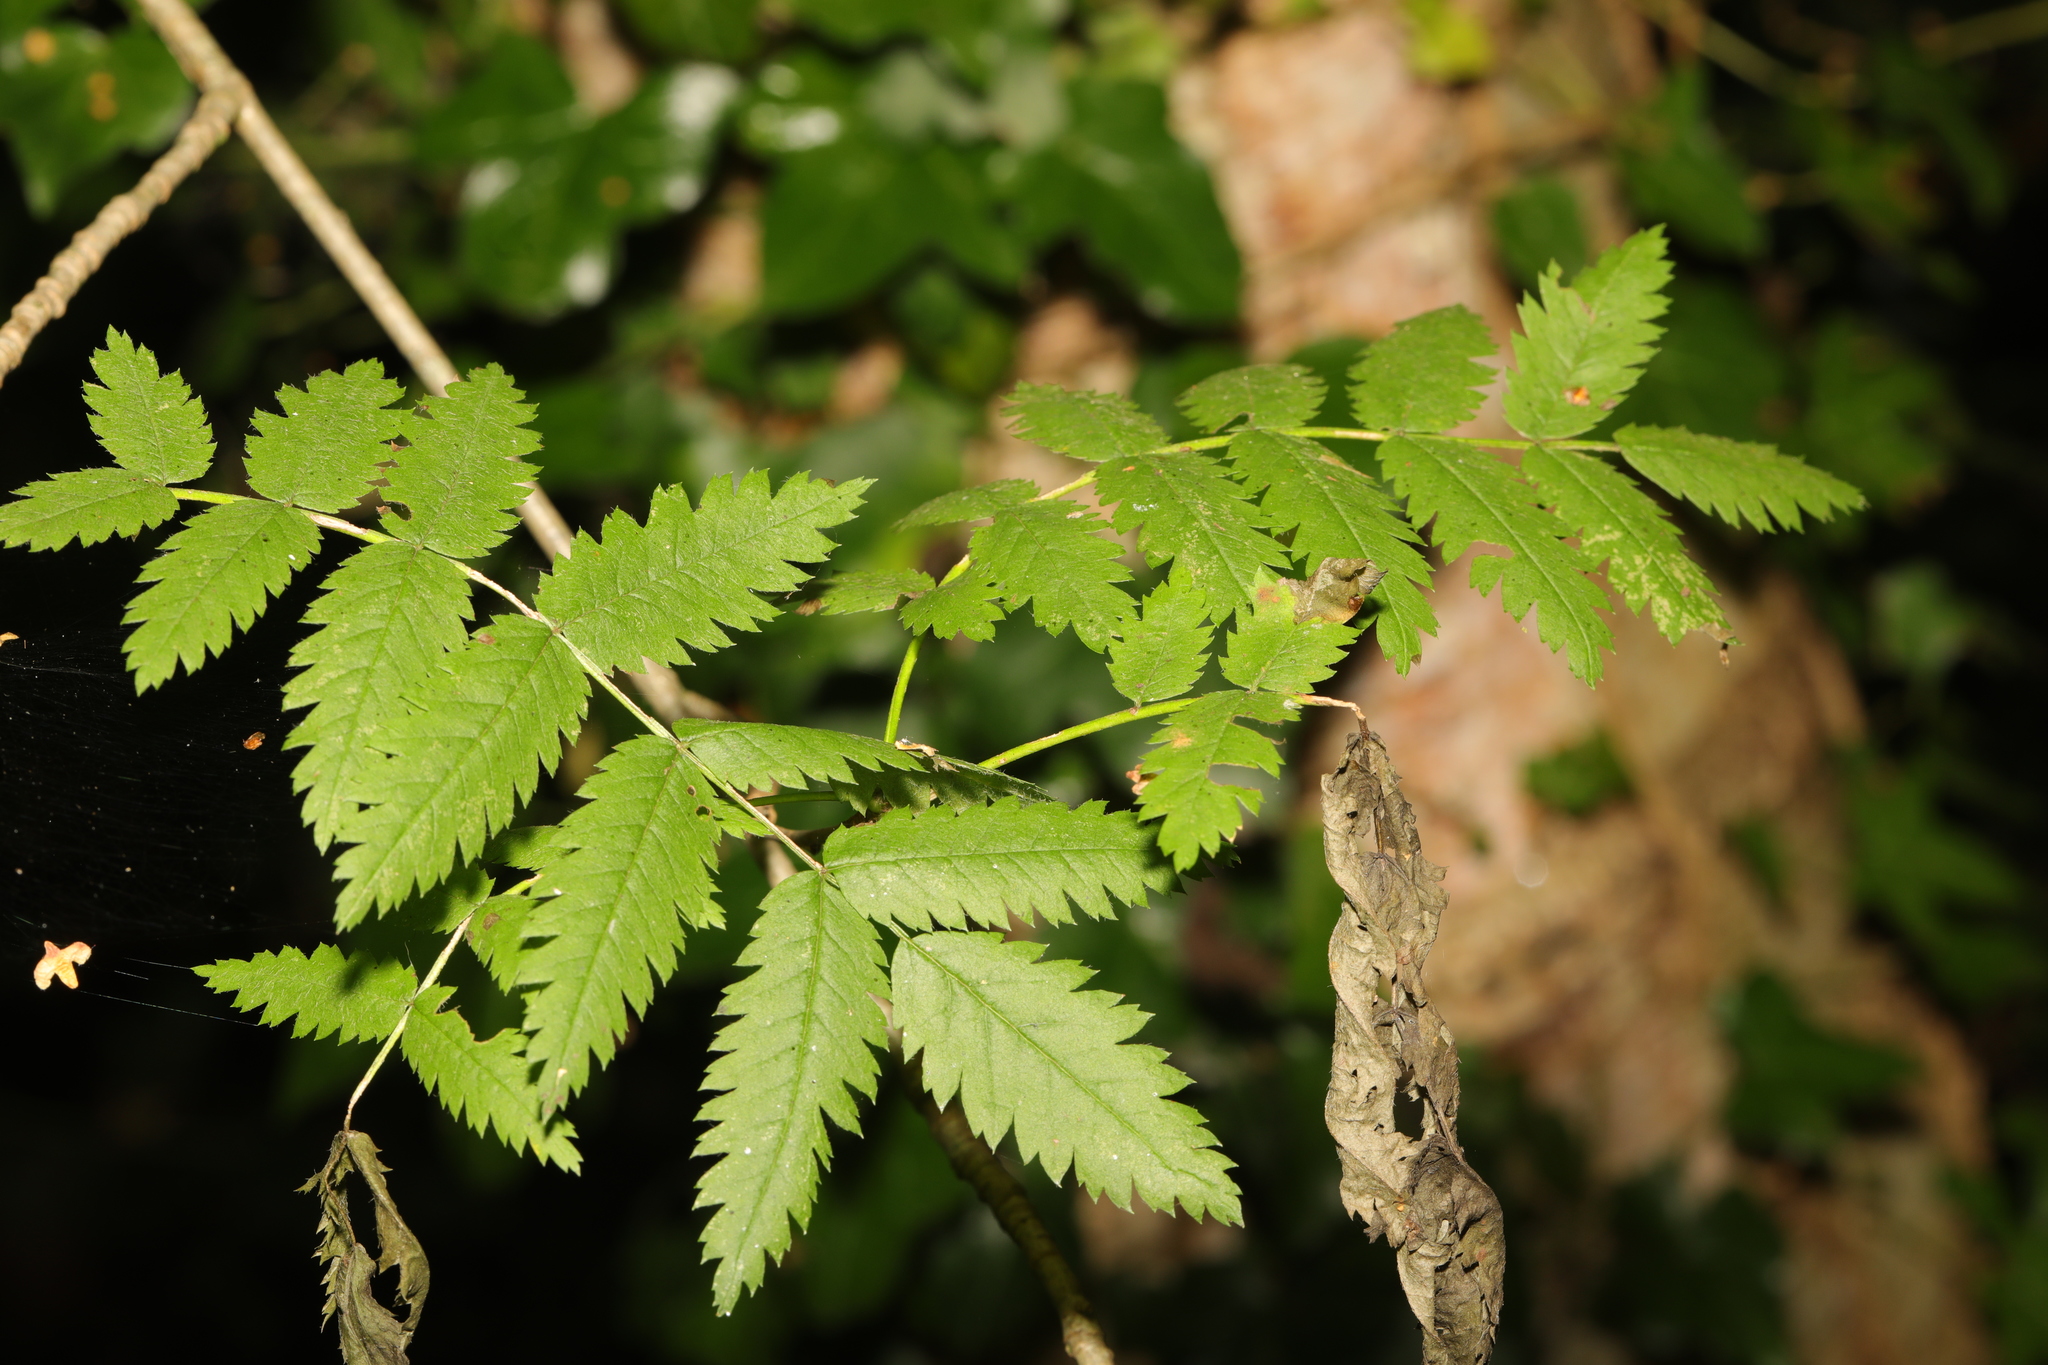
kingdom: Plantae
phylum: Tracheophyta
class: Magnoliopsida
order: Rosales
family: Rosaceae
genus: Sorbus
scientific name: Sorbus aucuparia
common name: Rowan
